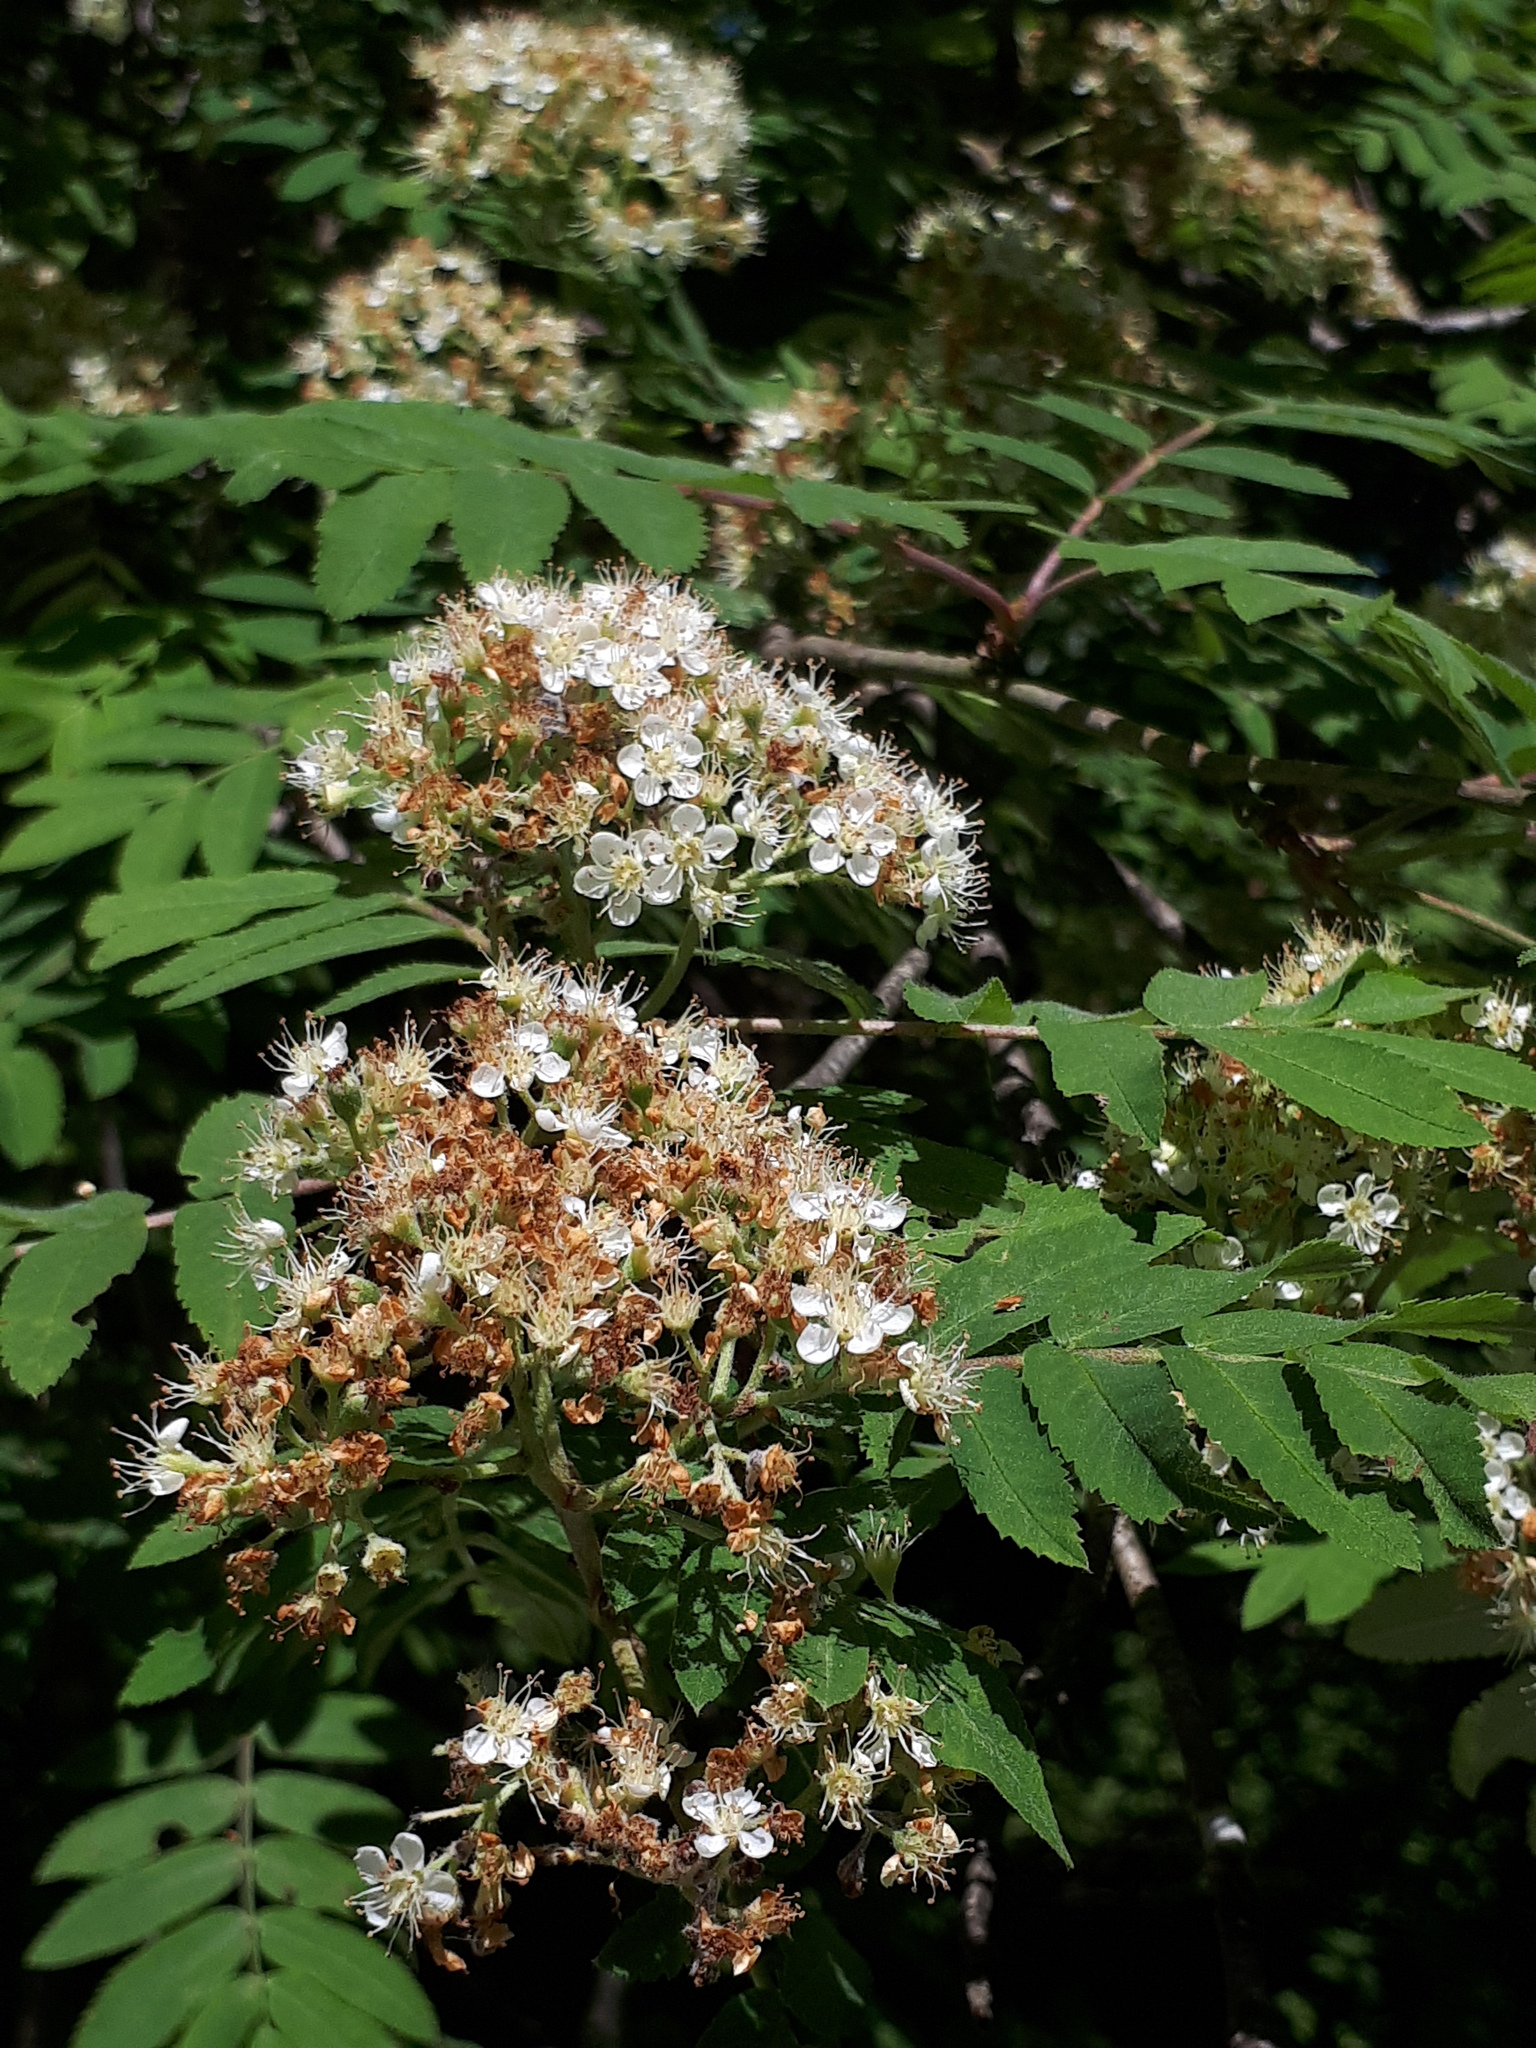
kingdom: Plantae
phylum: Tracheophyta
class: Magnoliopsida
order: Rosales
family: Rosaceae
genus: Sorbus
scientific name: Sorbus aucuparia
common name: Rowan
